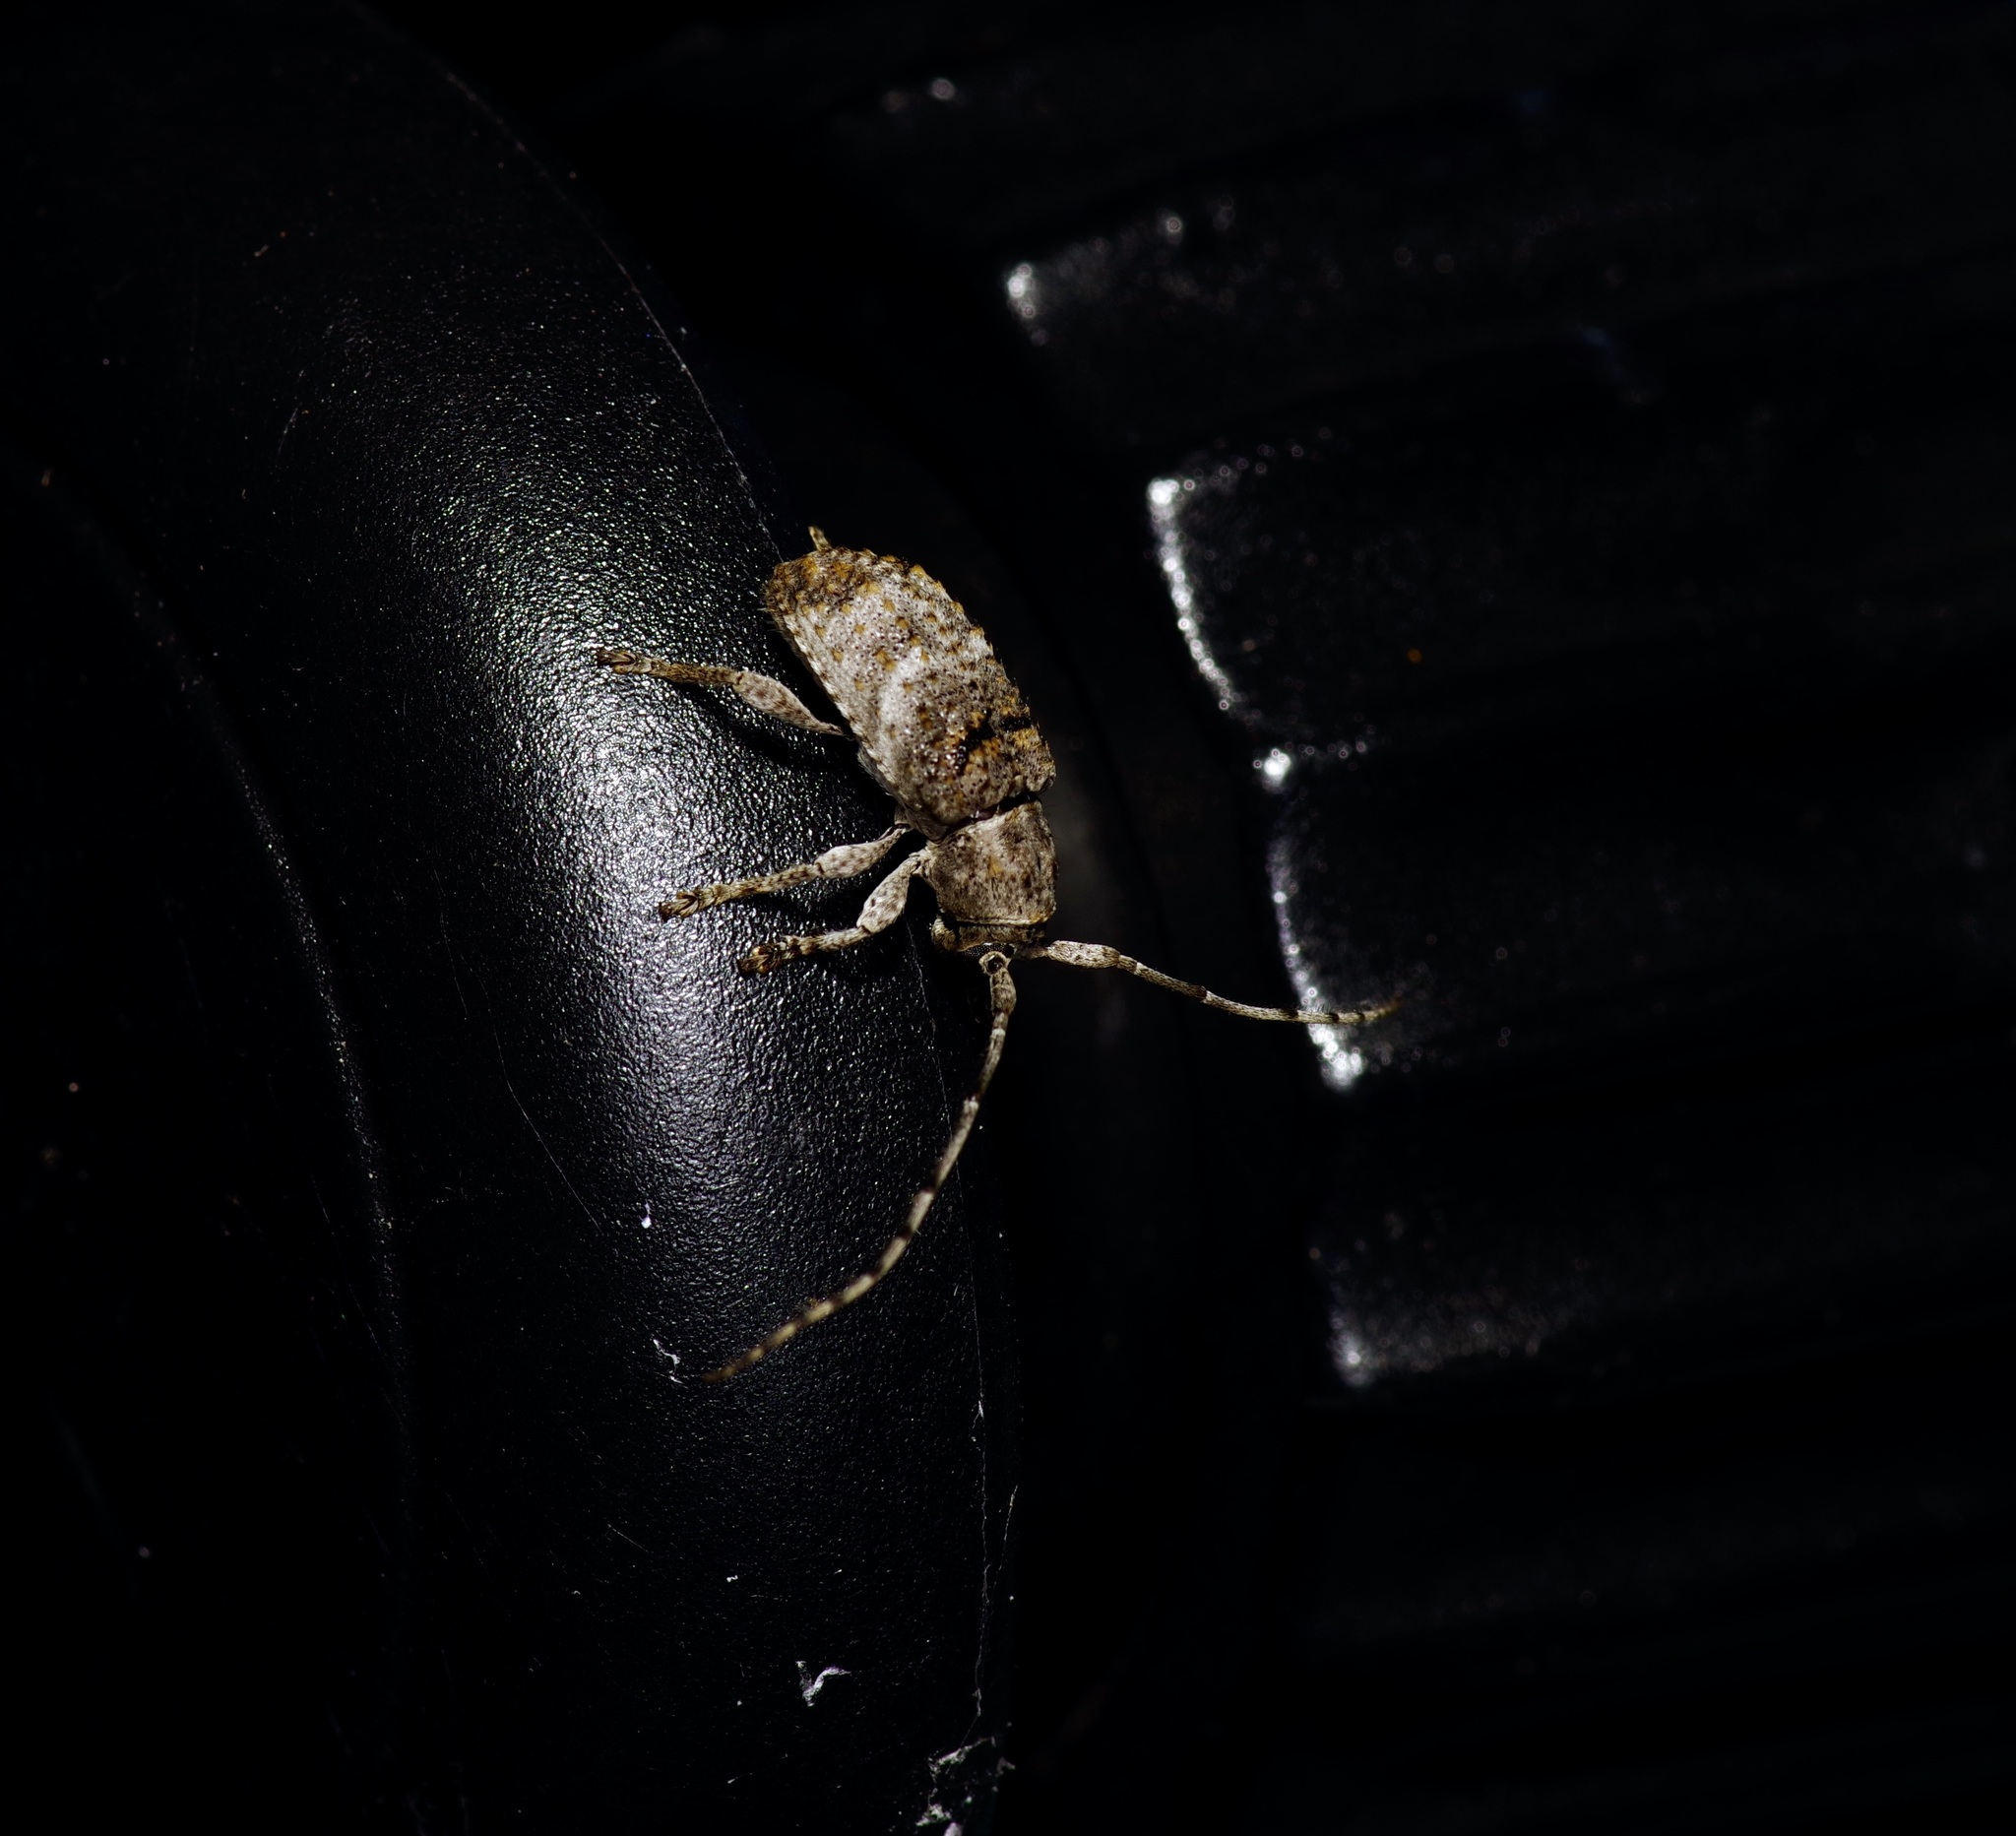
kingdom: Animalia
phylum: Arthropoda
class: Insecta
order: Coleoptera
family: Cerambycidae
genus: Ecyrus
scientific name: Ecyrus dasycerus
